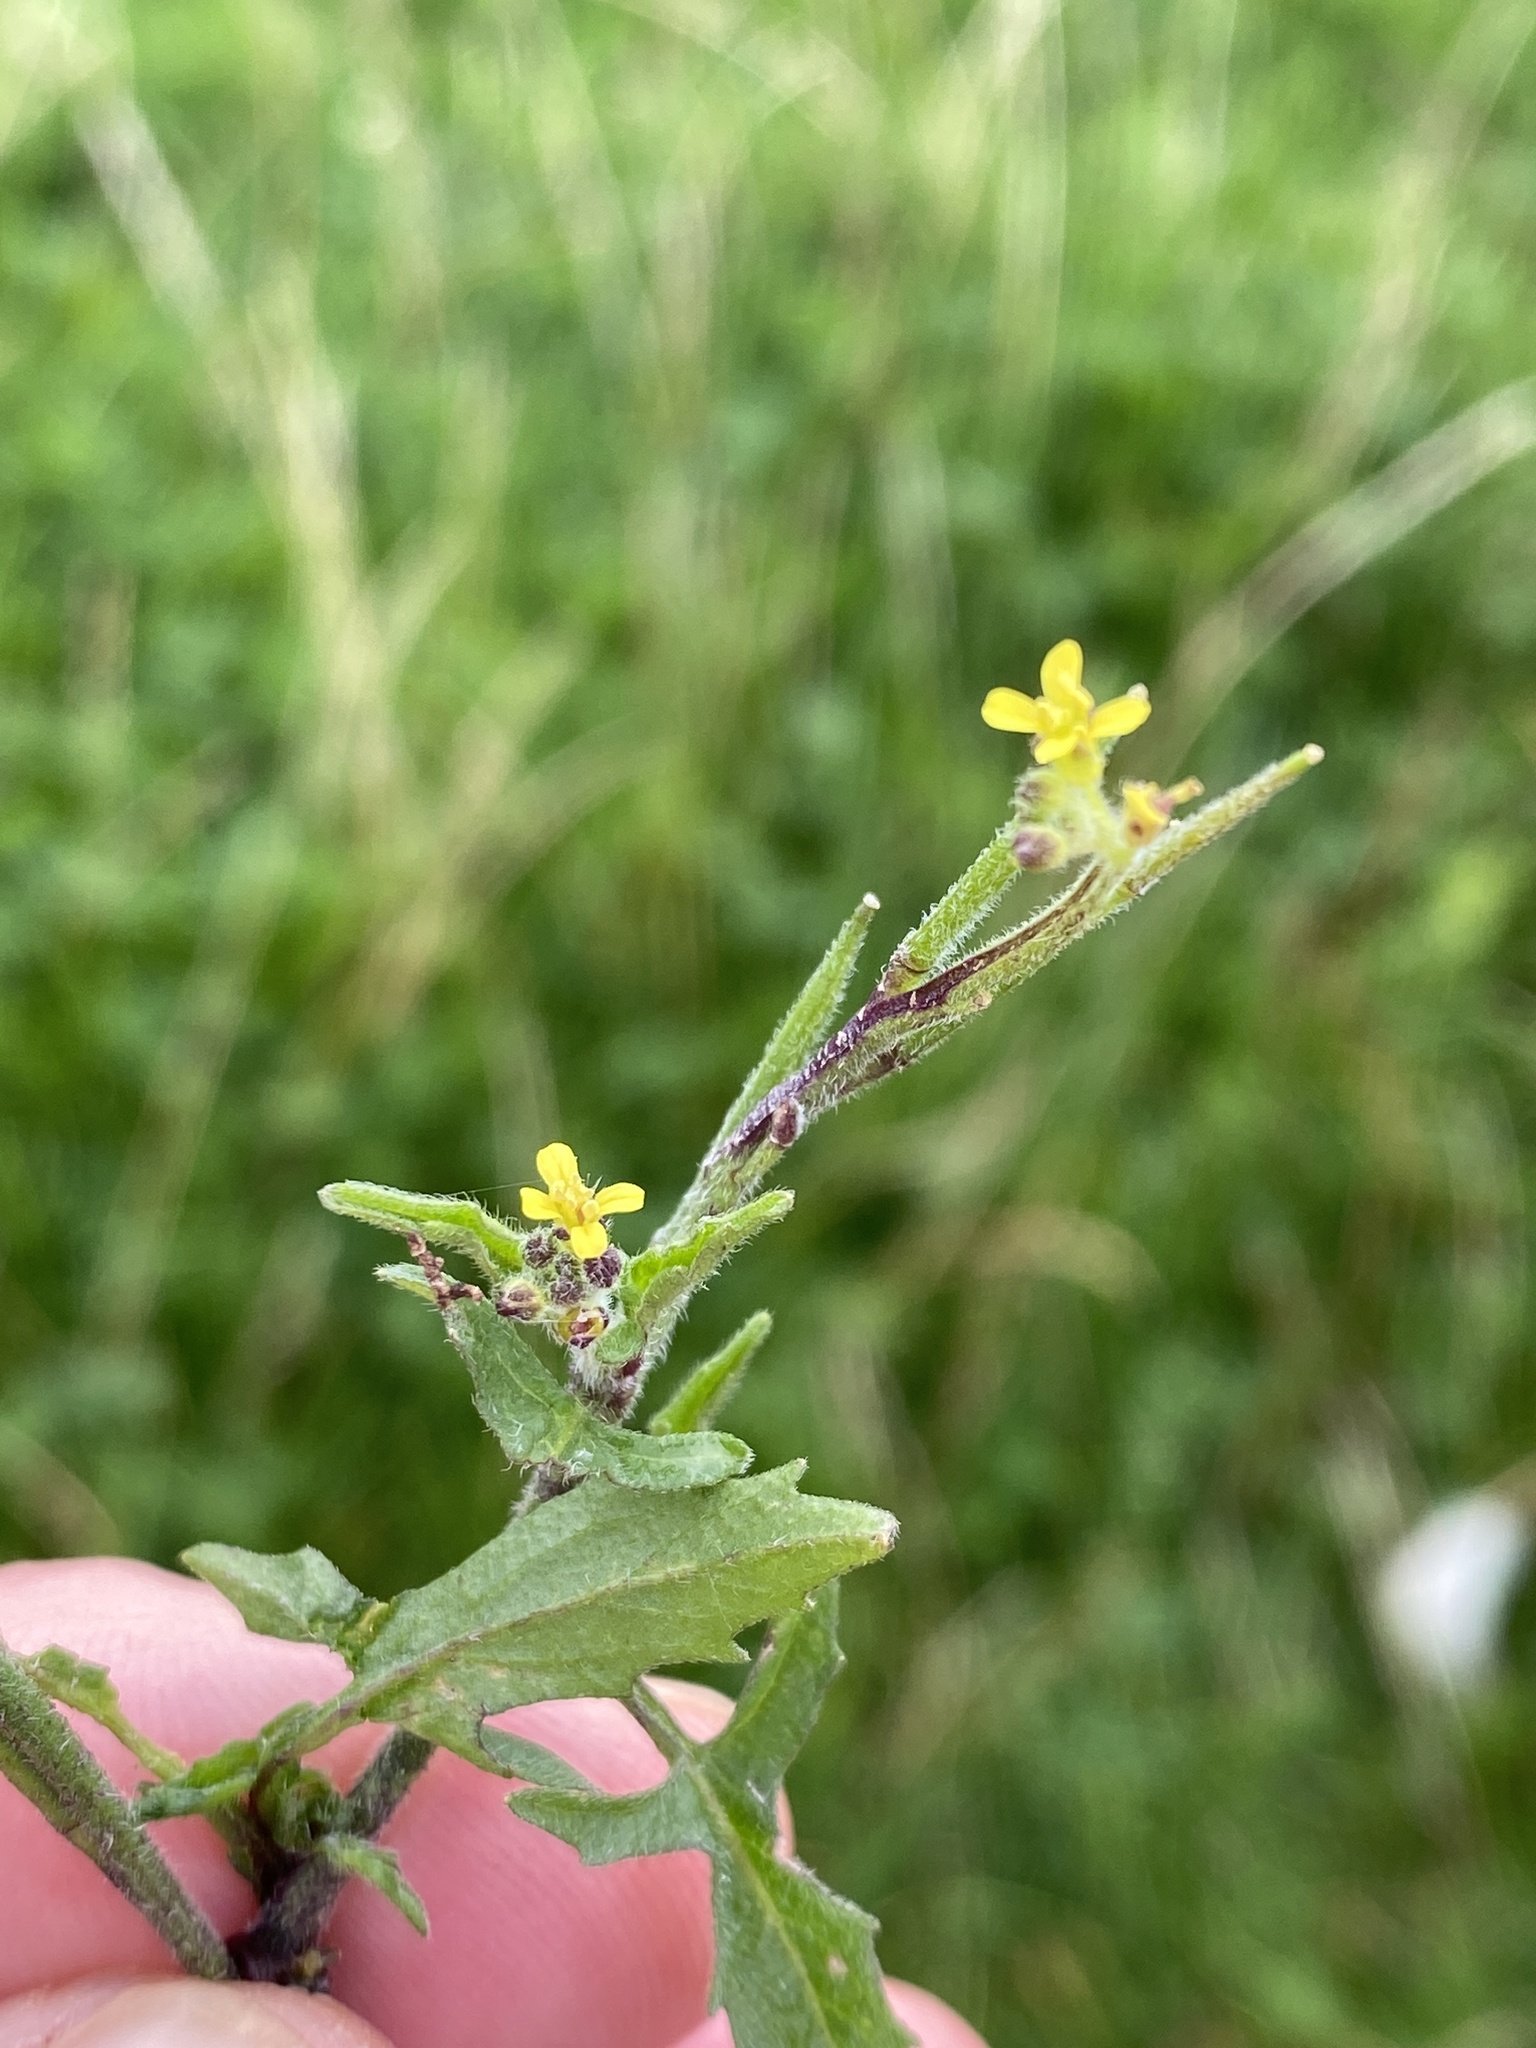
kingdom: Plantae
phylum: Tracheophyta
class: Magnoliopsida
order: Brassicales
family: Brassicaceae
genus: Sisymbrium
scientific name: Sisymbrium officinale
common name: Hedge mustard
